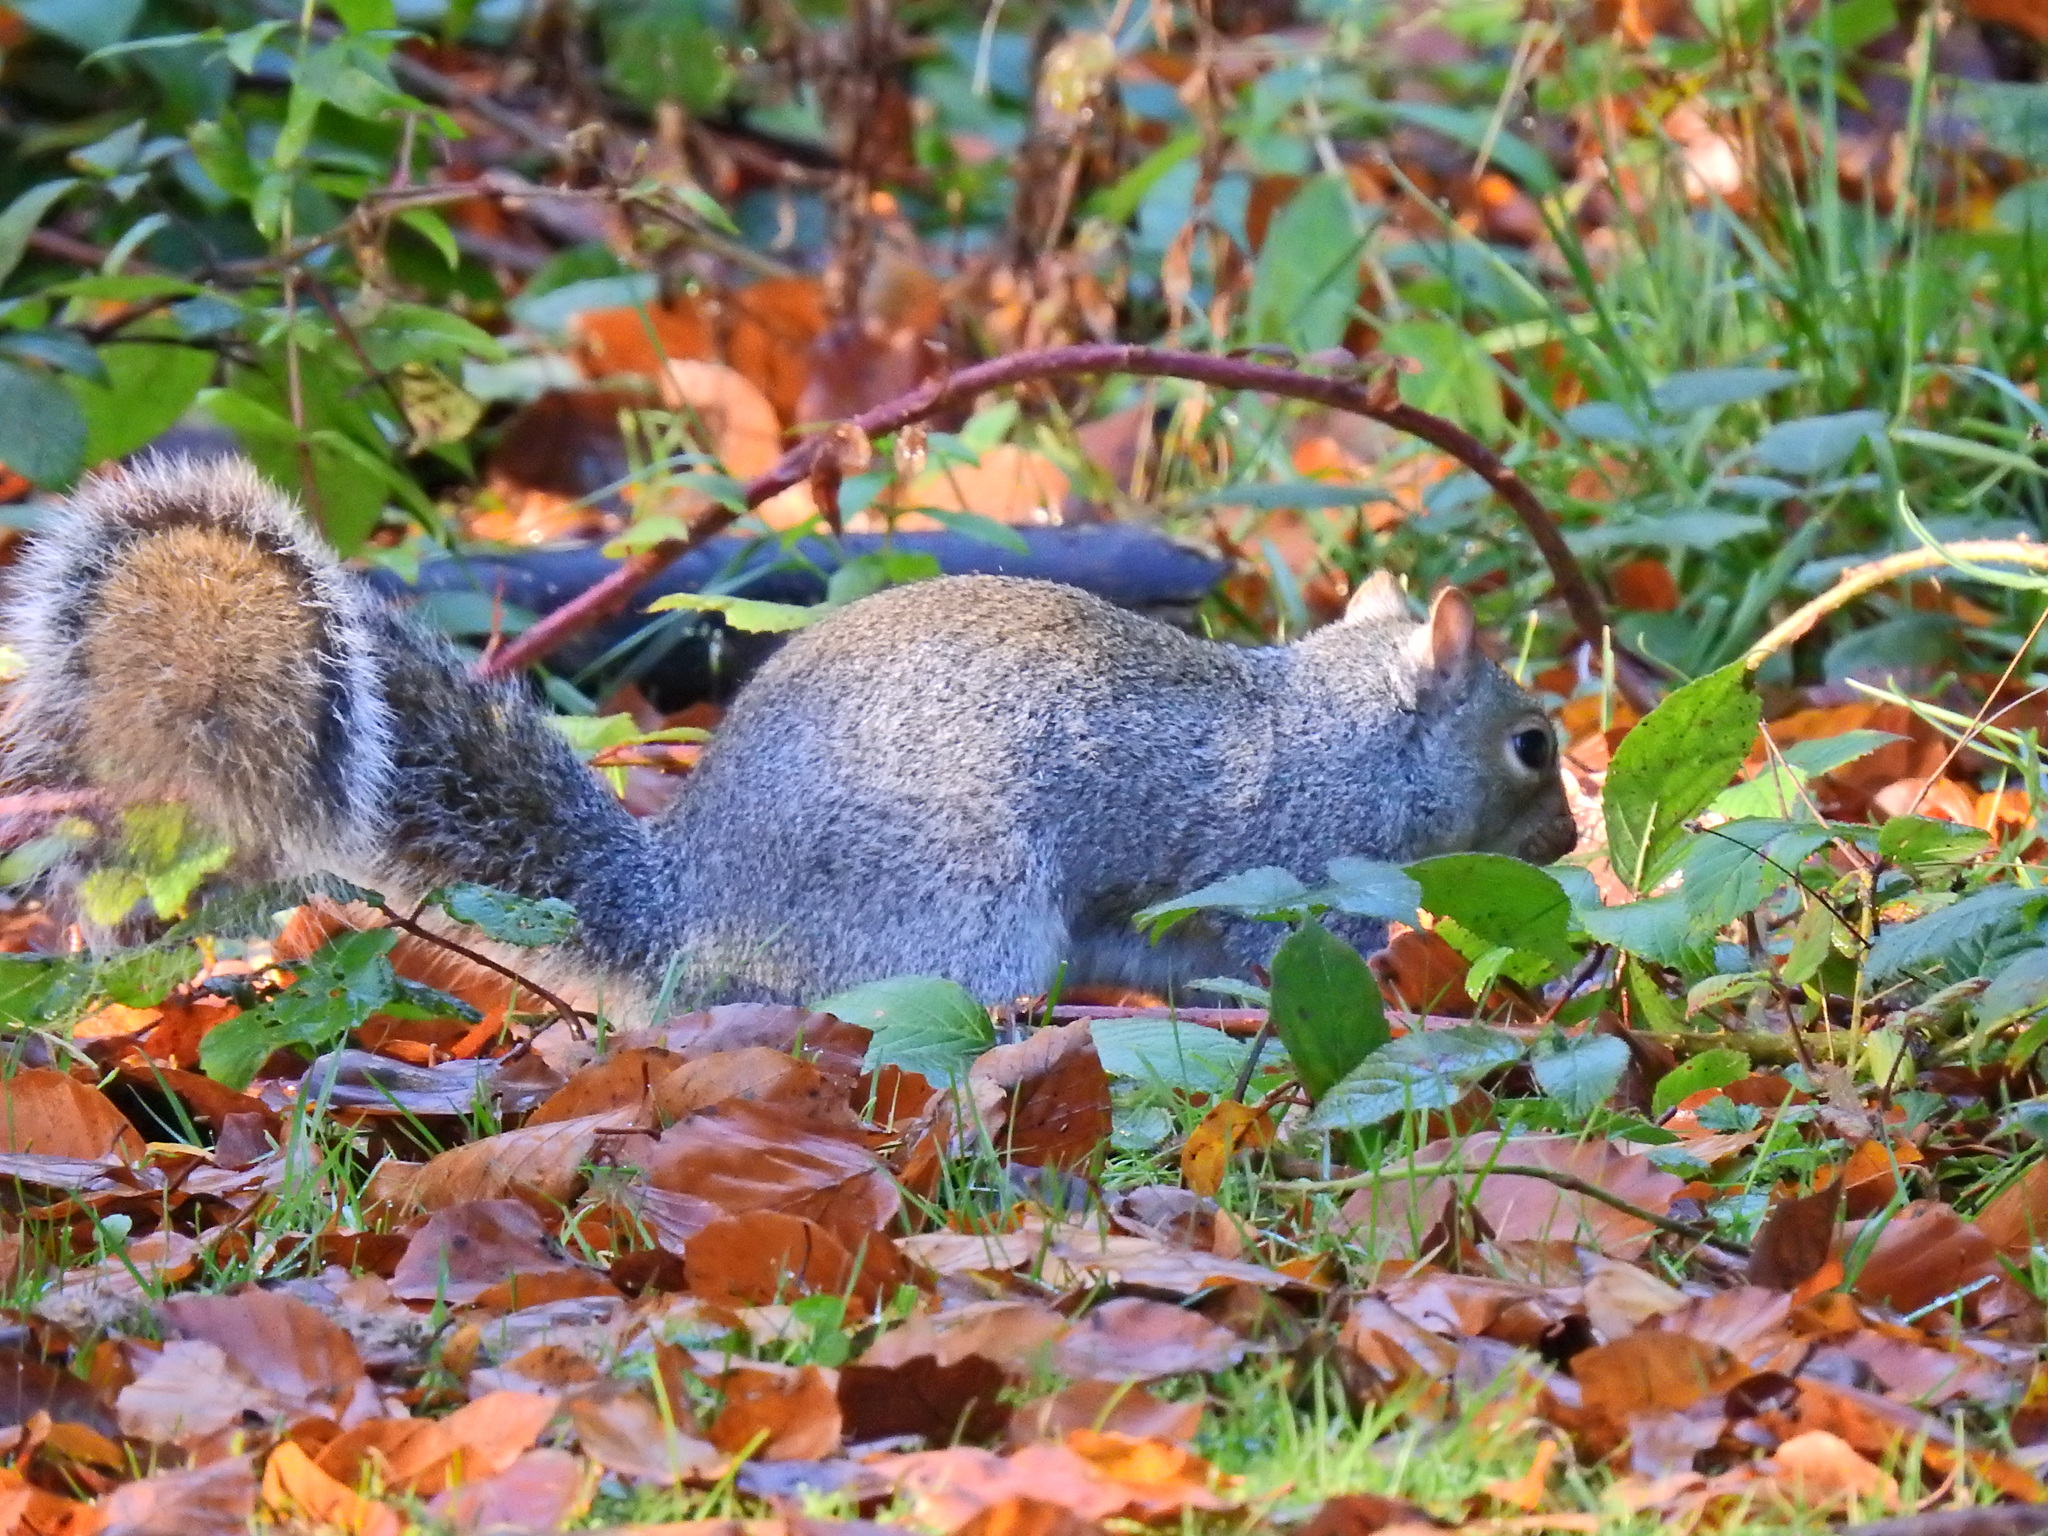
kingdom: Animalia
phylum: Chordata
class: Mammalia
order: Rodentia
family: Sciuridae
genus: Sciurus
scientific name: Sciurus carolinensis
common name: Eastern gray squirrel
